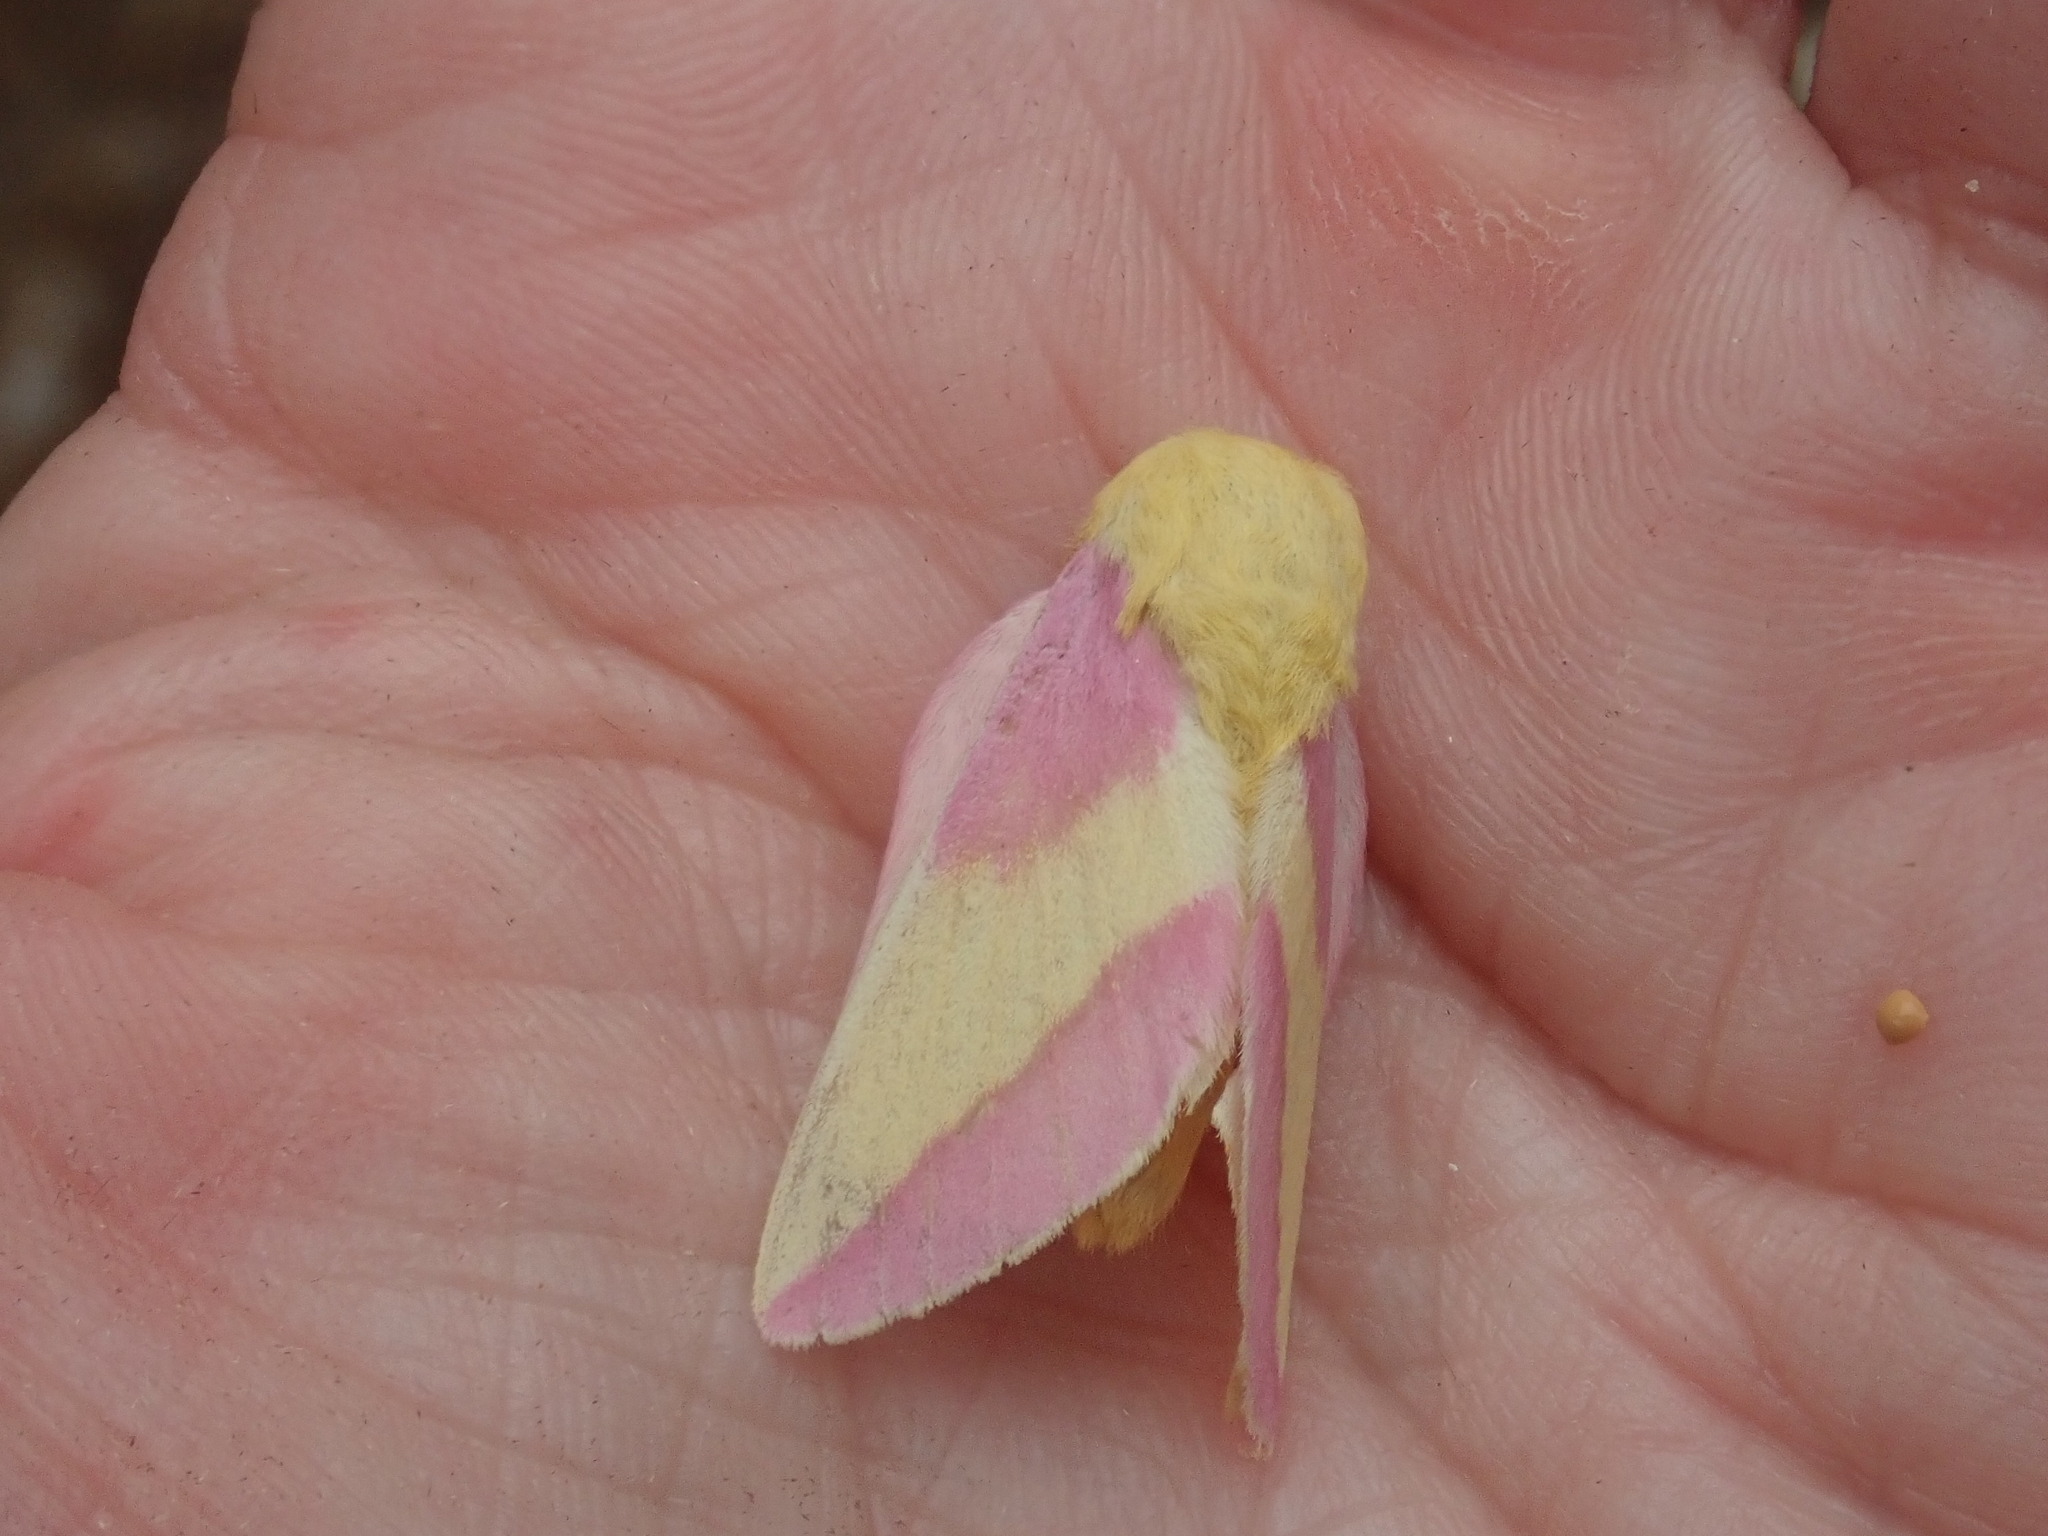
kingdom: Animalia
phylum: Arthropoda
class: Insecta
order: Lepidoptera
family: Saturniidae
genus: Dryocampa
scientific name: Dryocampa rubicunda
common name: Rosy maple moth
